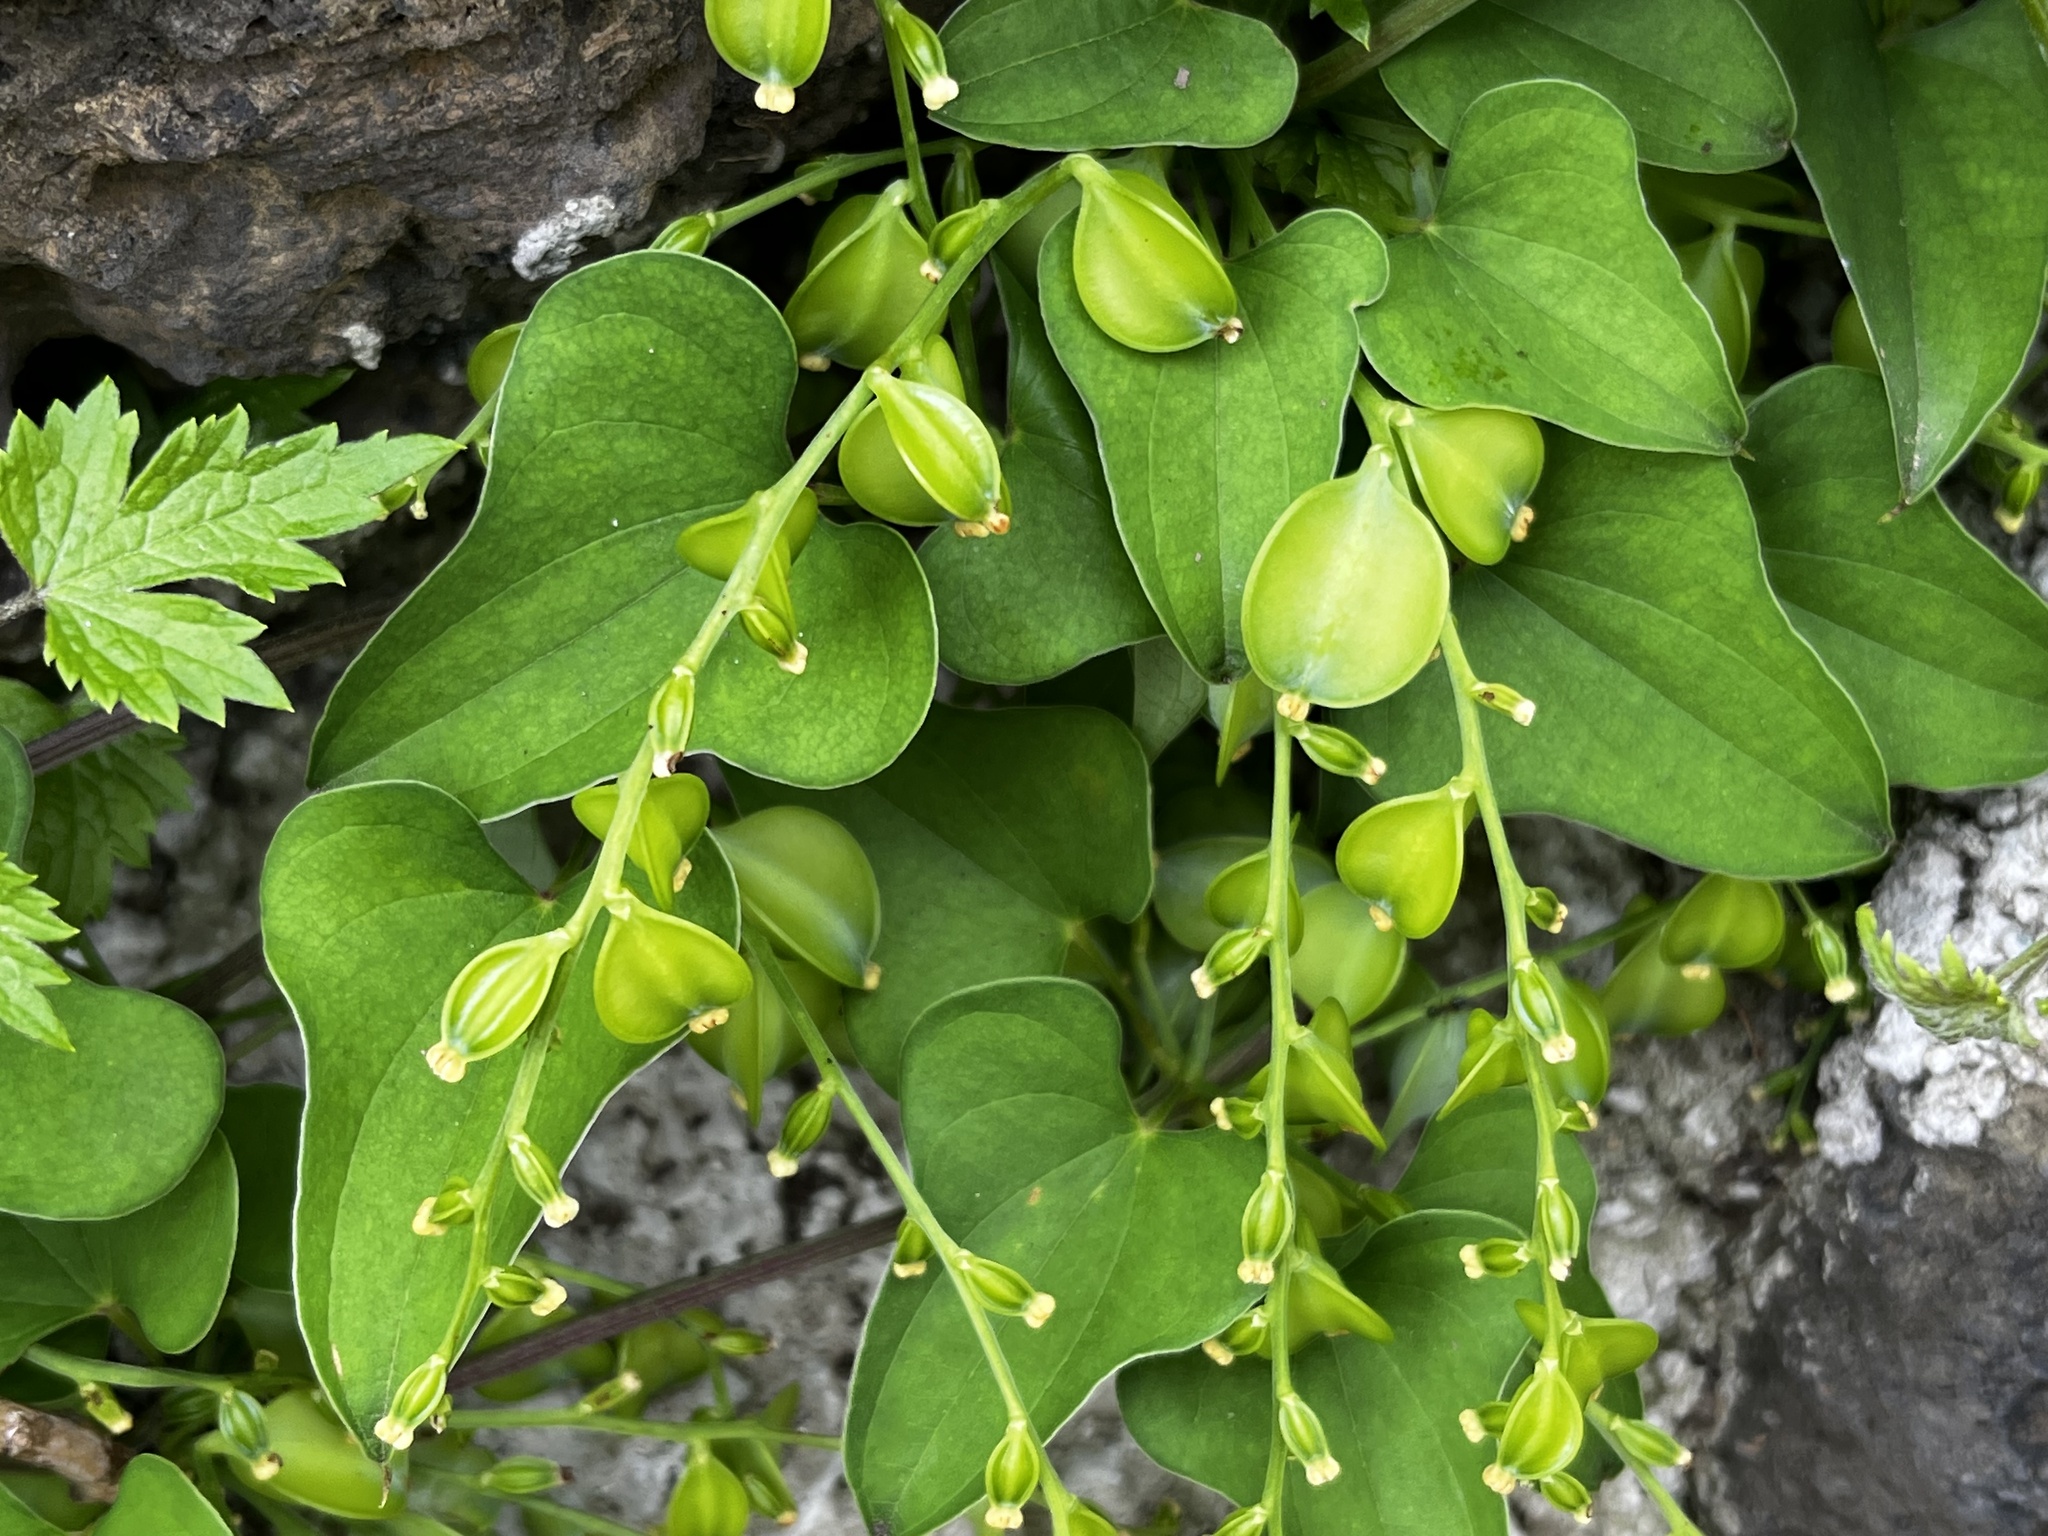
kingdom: Plantae
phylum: Tracheophyta
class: Liliopsida
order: Dioscoreales
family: Dioscoreaceae
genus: Dioscorea
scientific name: Dioscorea polystachya
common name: Chinese yam
